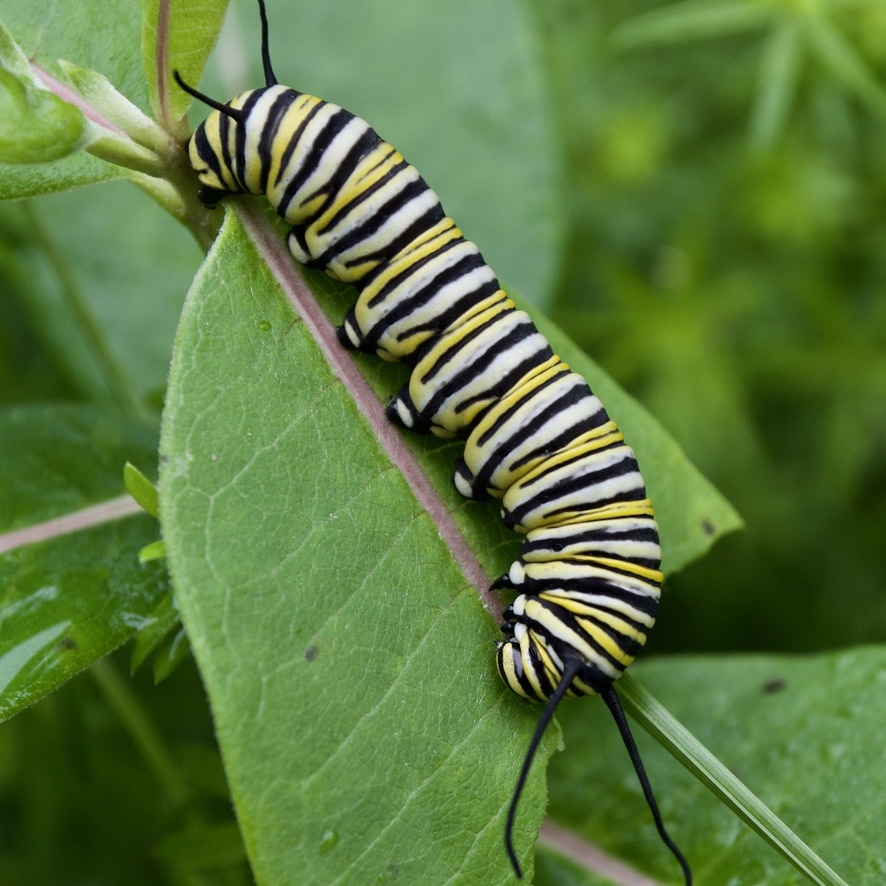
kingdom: Animalia
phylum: Arthropoda
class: Insecta
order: Lepidoptera
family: Nymphalidae
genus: Danaus
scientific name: Danaus plexippus
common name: Monarch
